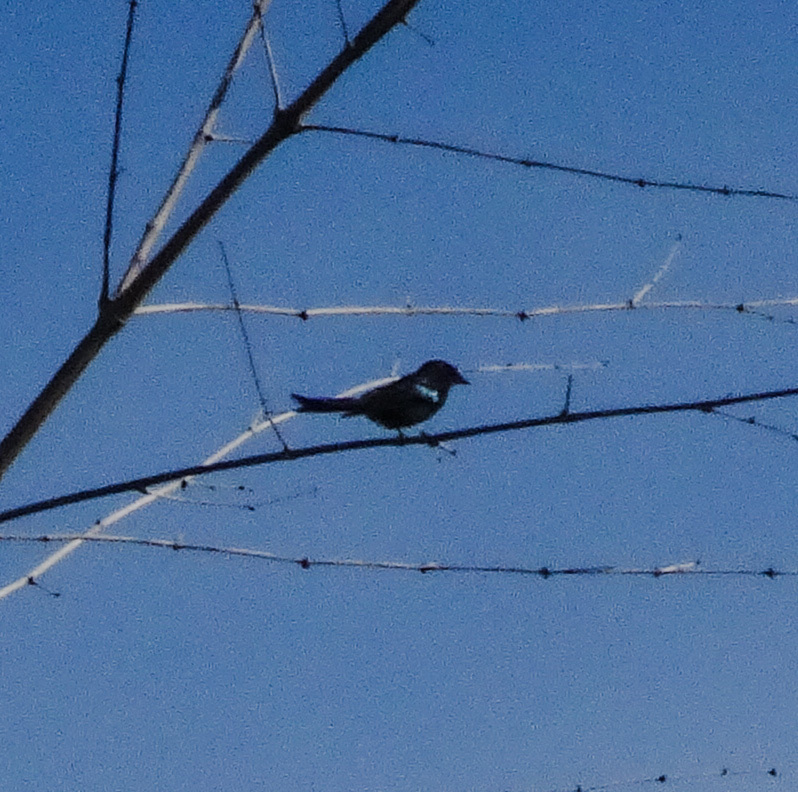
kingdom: Animalia
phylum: Chordata
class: Aves
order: Passeriformes
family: Dicruridae
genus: Dicrurus
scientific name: Dicrurus aeneus
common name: Bronzed drongo
